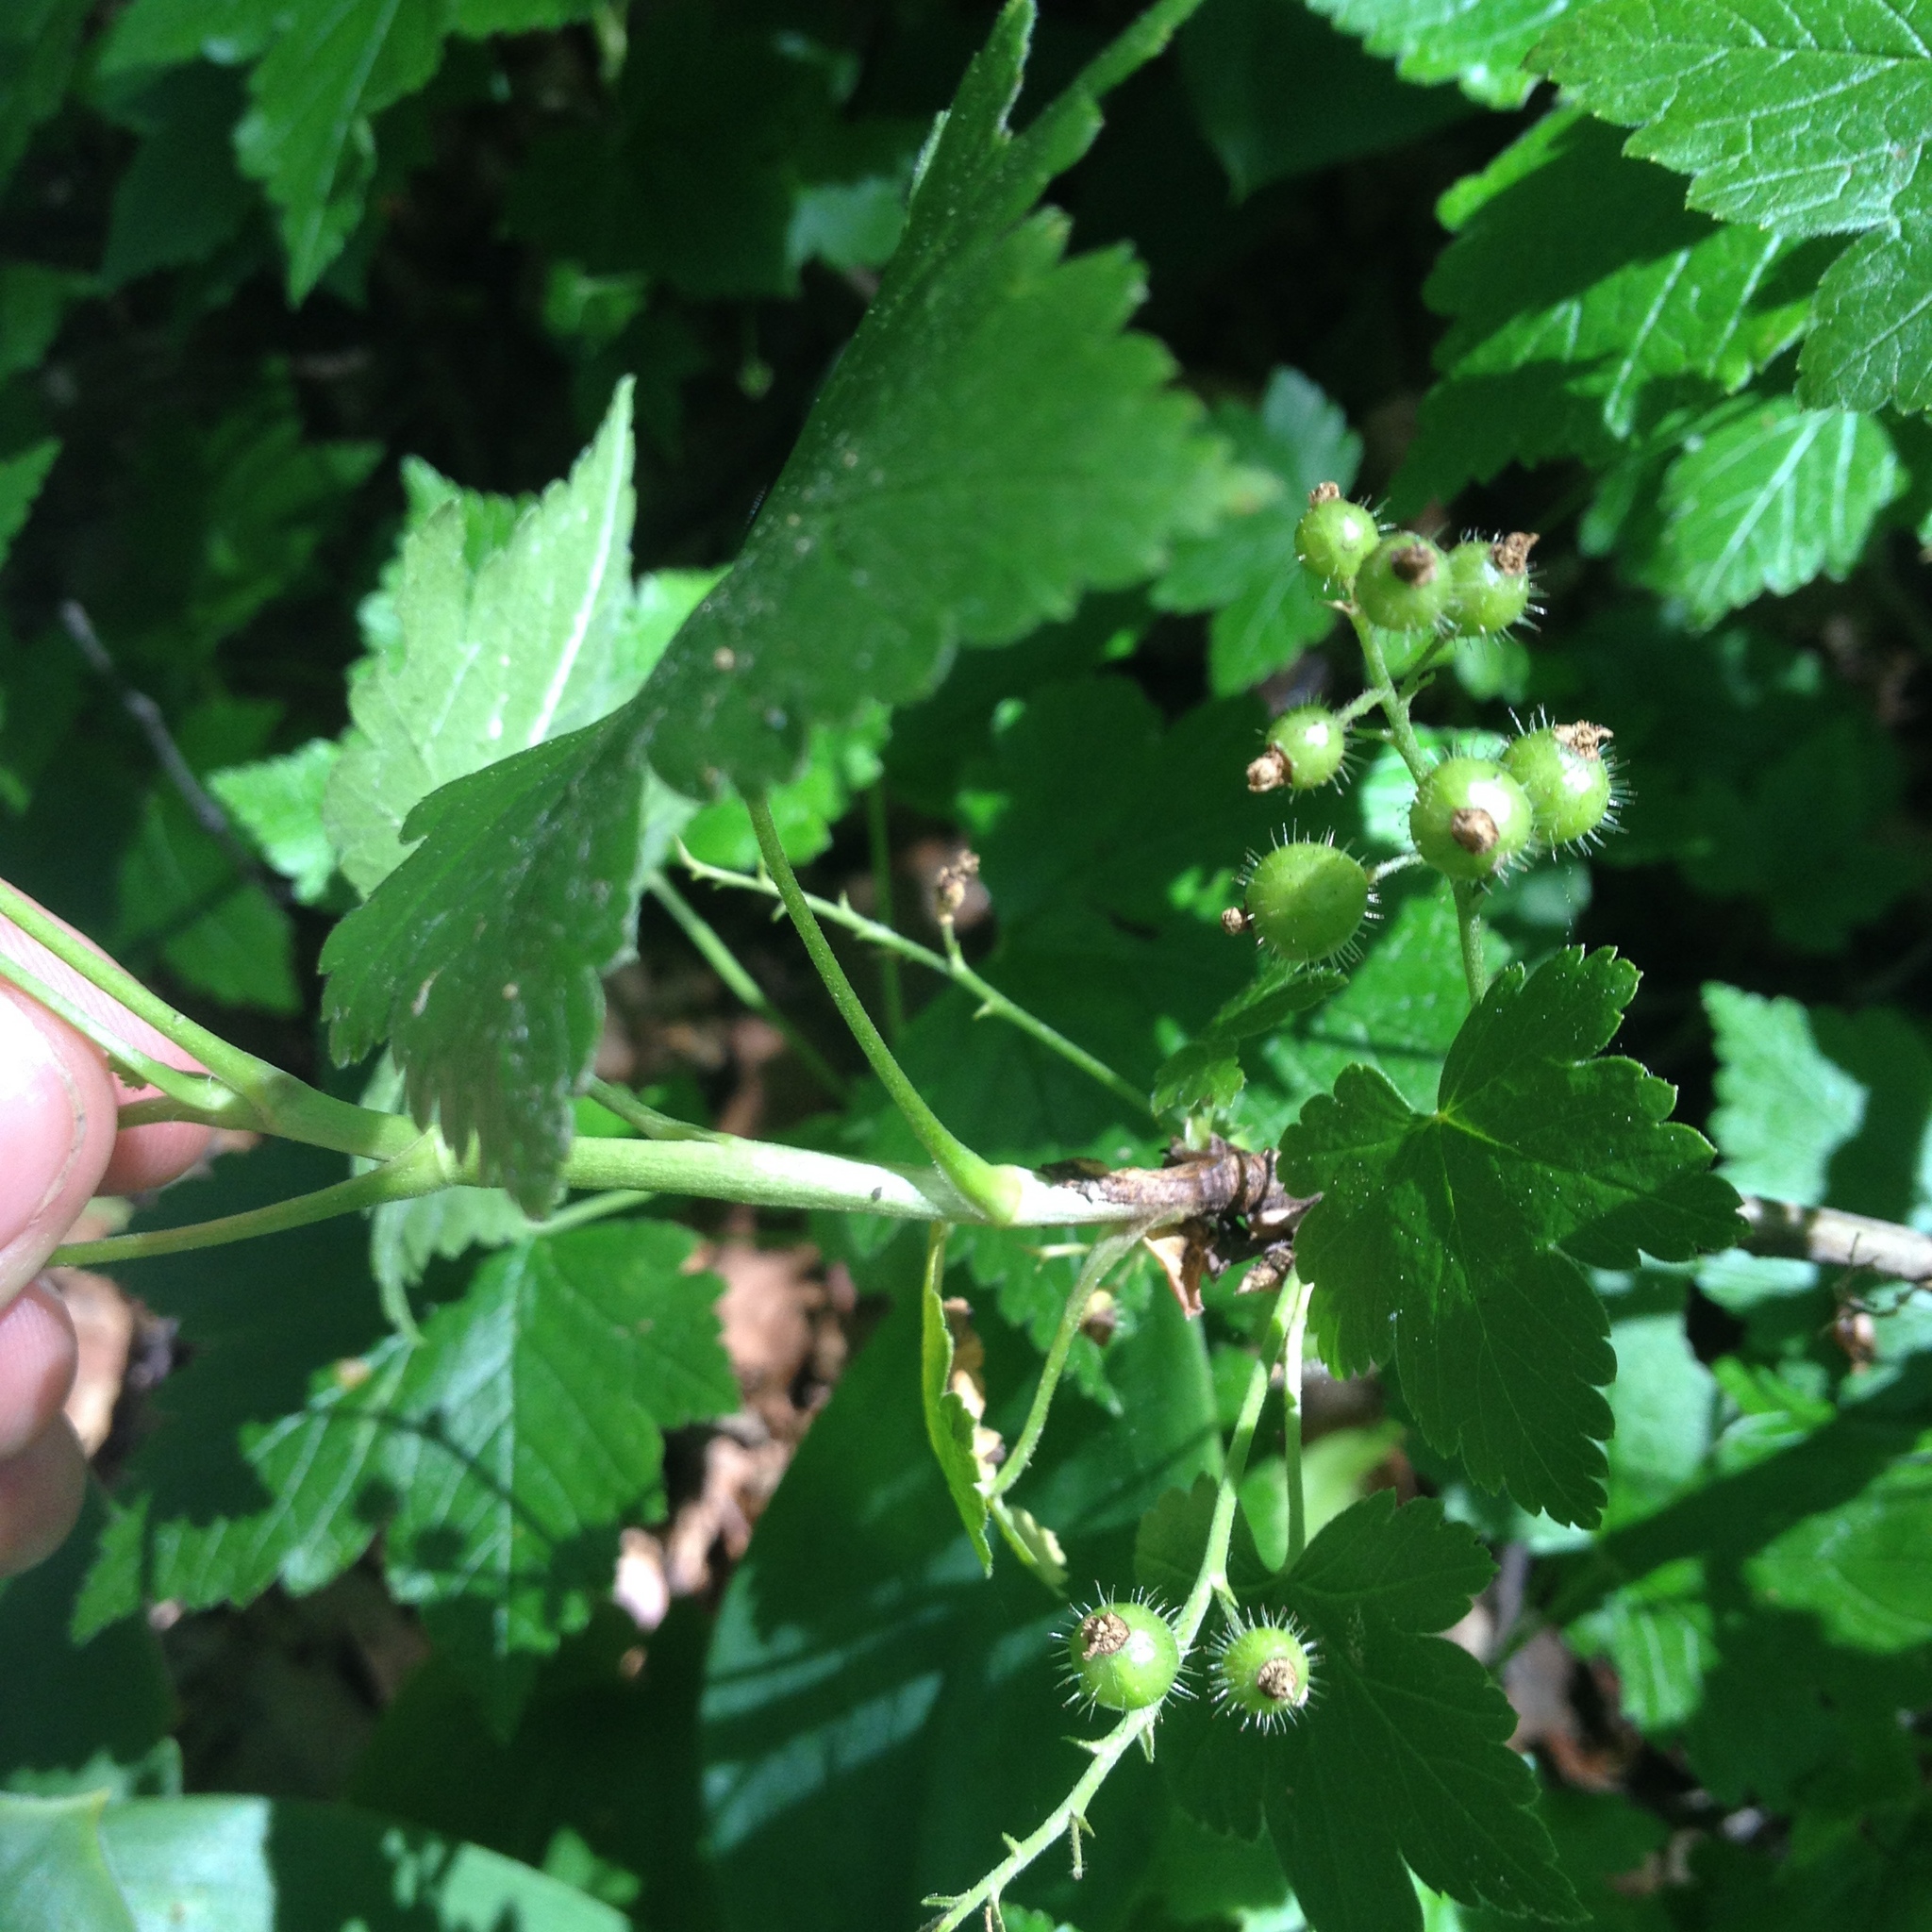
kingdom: Plantae
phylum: Tracheophyta
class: Magnoliopsida
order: Saxifragales
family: Grossulariaceae
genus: Ribes
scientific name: Ribes glandulosum
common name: Skunk currant
